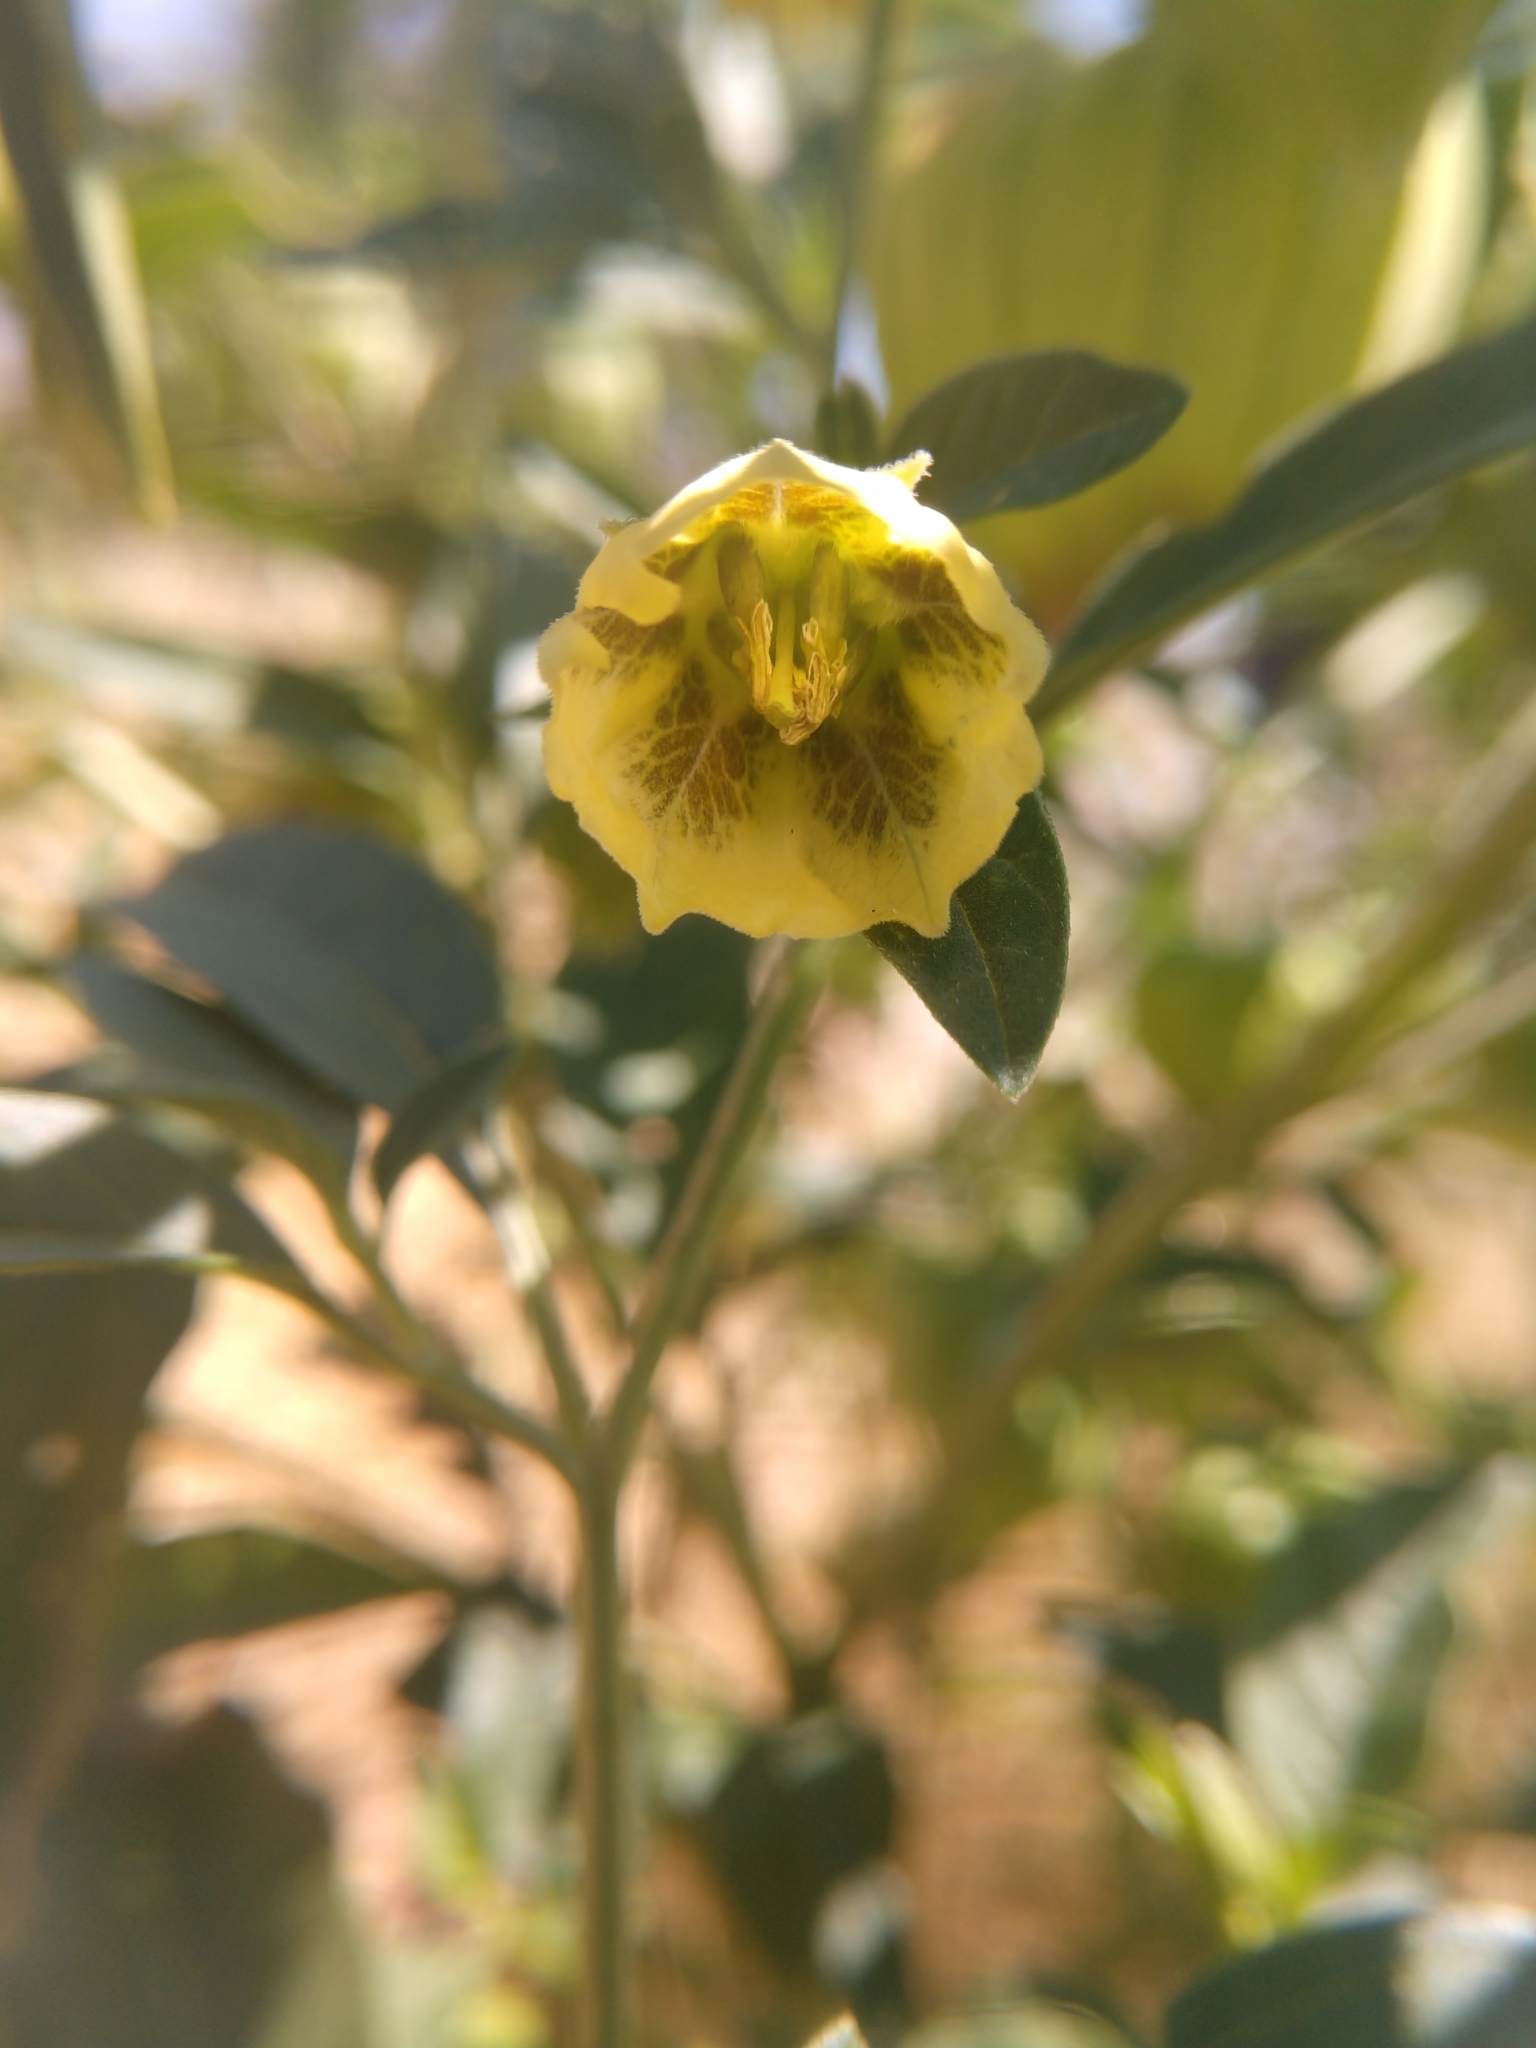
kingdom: Plantae
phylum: Tracheophyta
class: Magnoliopsida
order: Solanales
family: Solanaceae
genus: Physalis
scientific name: Physalis longifolia
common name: Common ground-cherry
